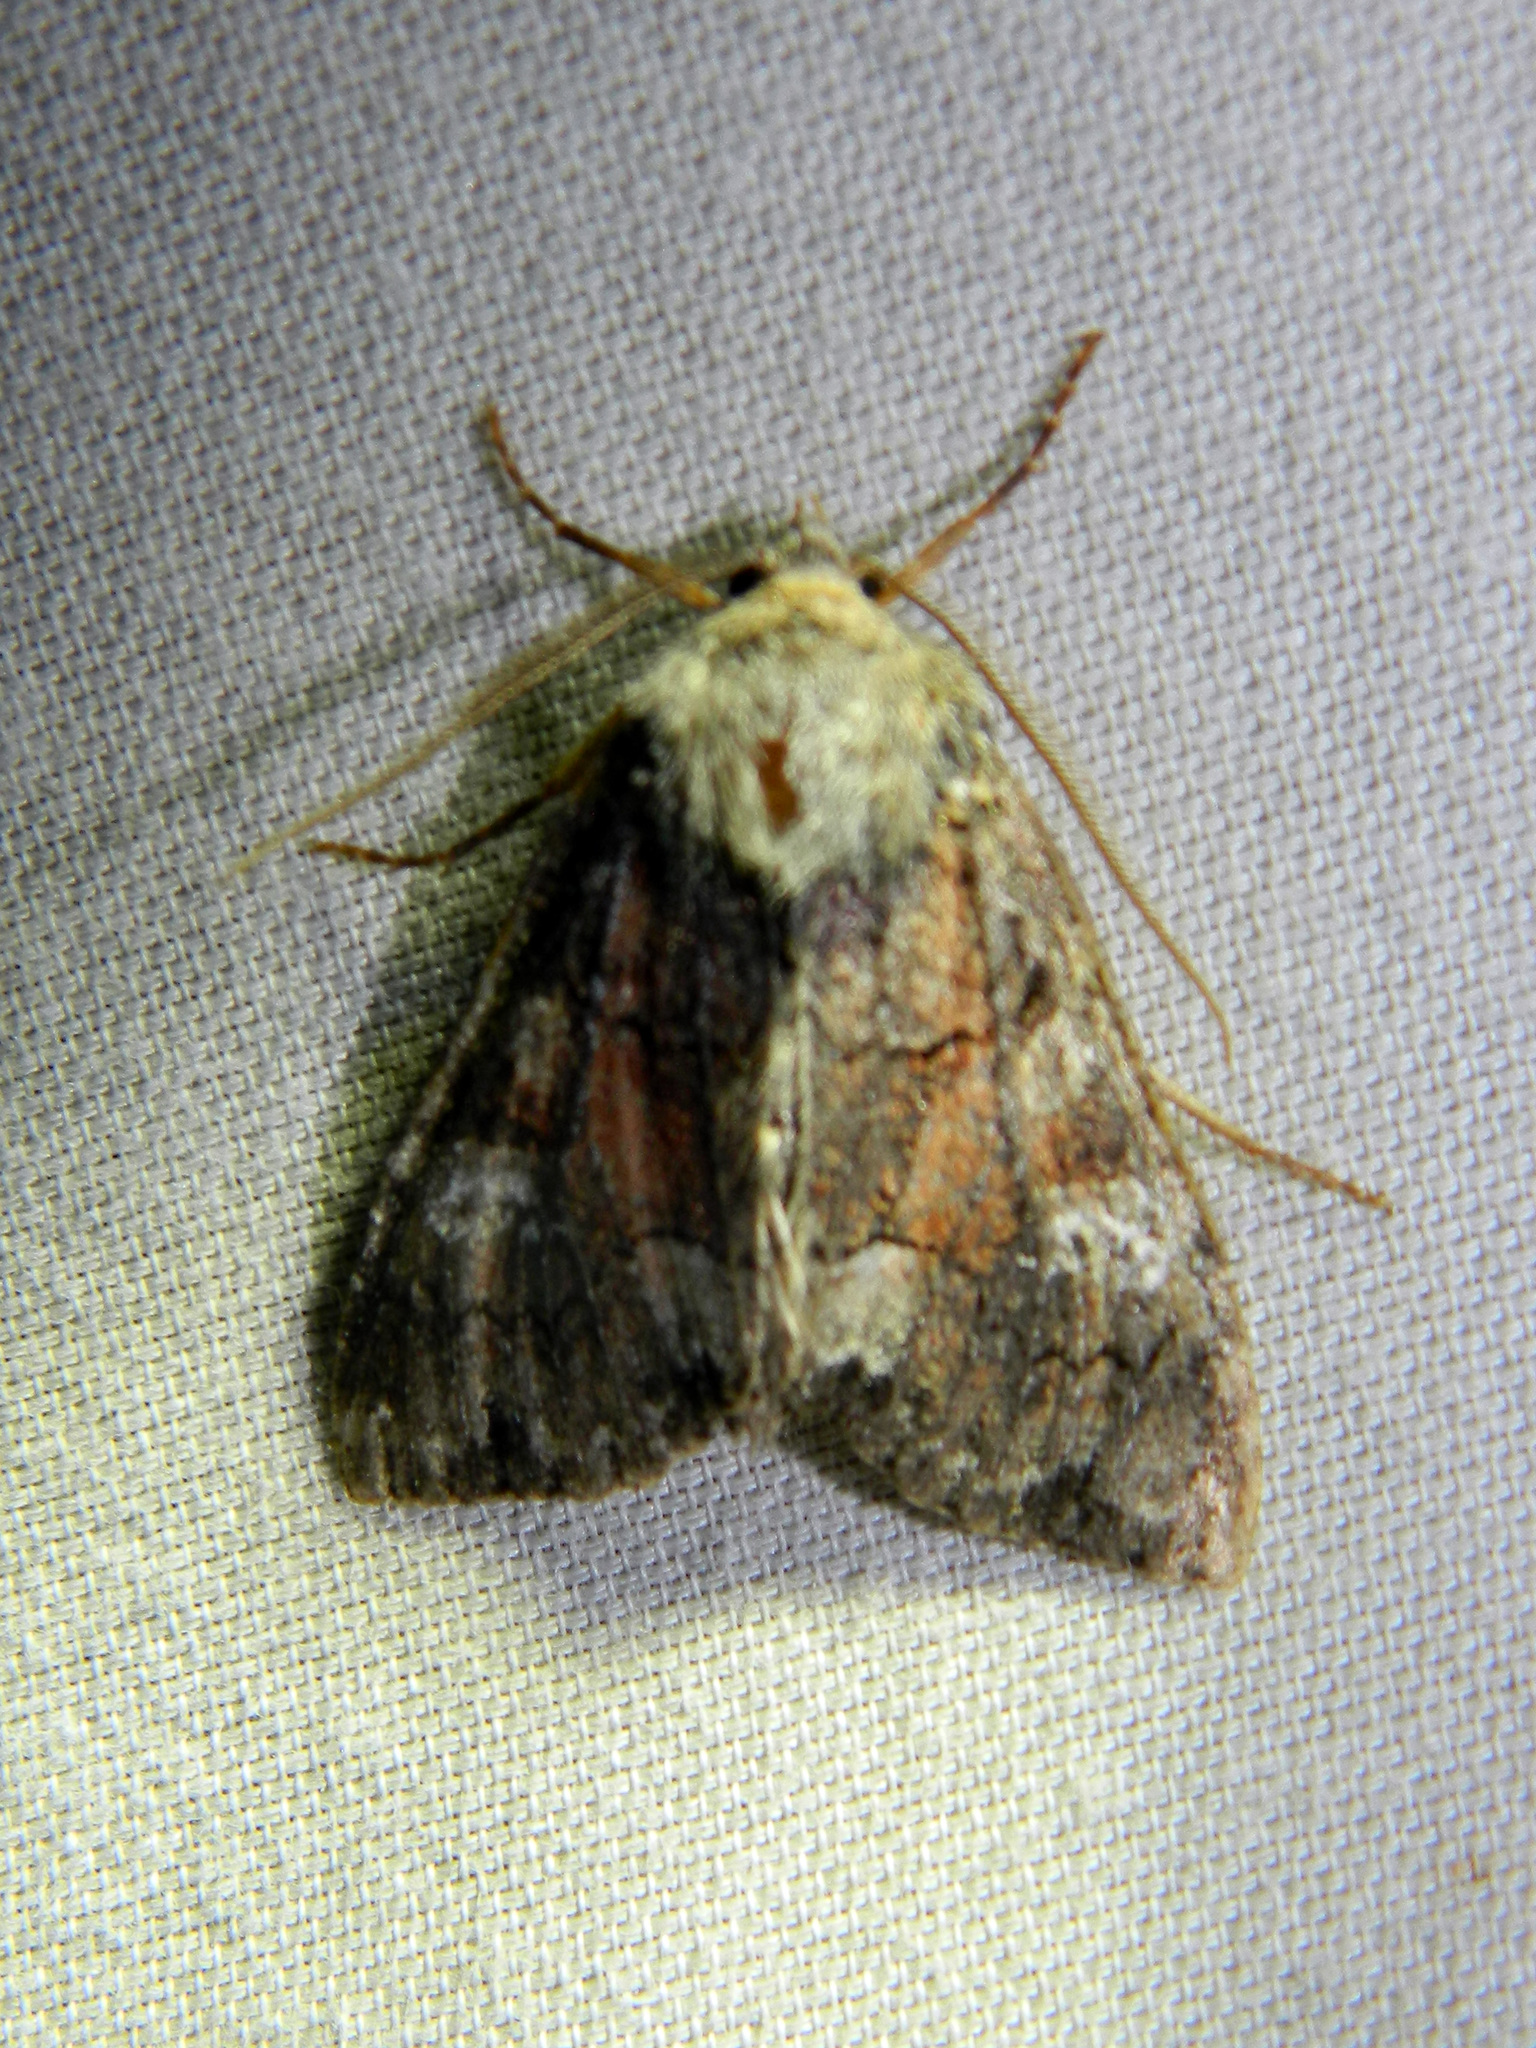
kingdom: Animalia
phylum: Arthropoda
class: Insecta
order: Lepidoptera
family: Noctuidae
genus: Fishia
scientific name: Fishia illocata
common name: Wandering brocade moth
